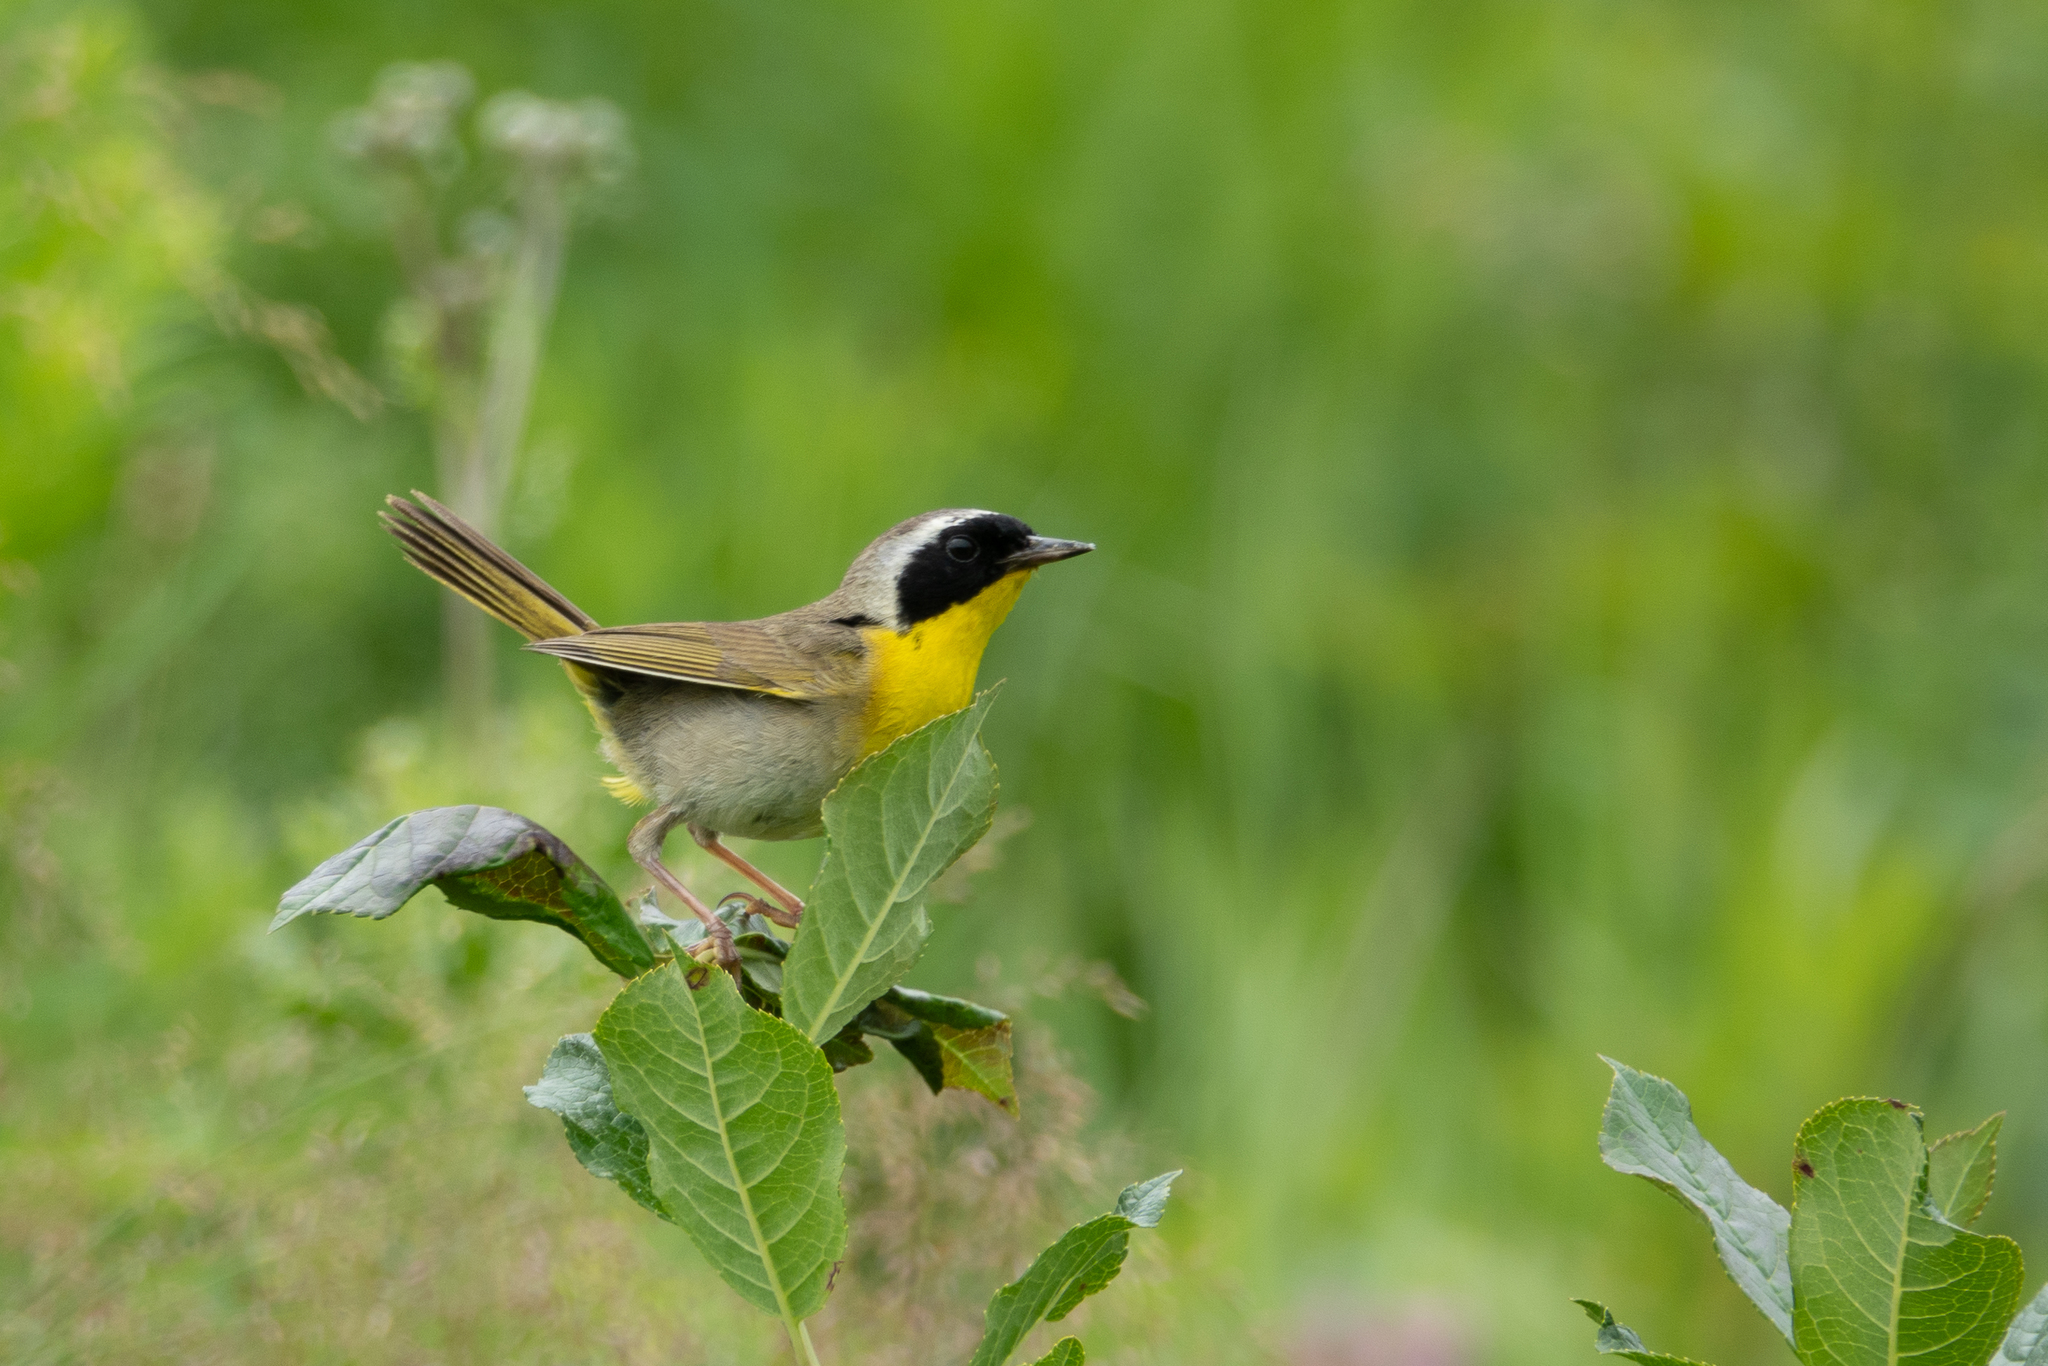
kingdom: Animalia
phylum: Chordata
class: Aves
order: Passeriformes
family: Parulidae
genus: Geothlypis
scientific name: Geothlypis trichas
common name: Common yellowthroat
